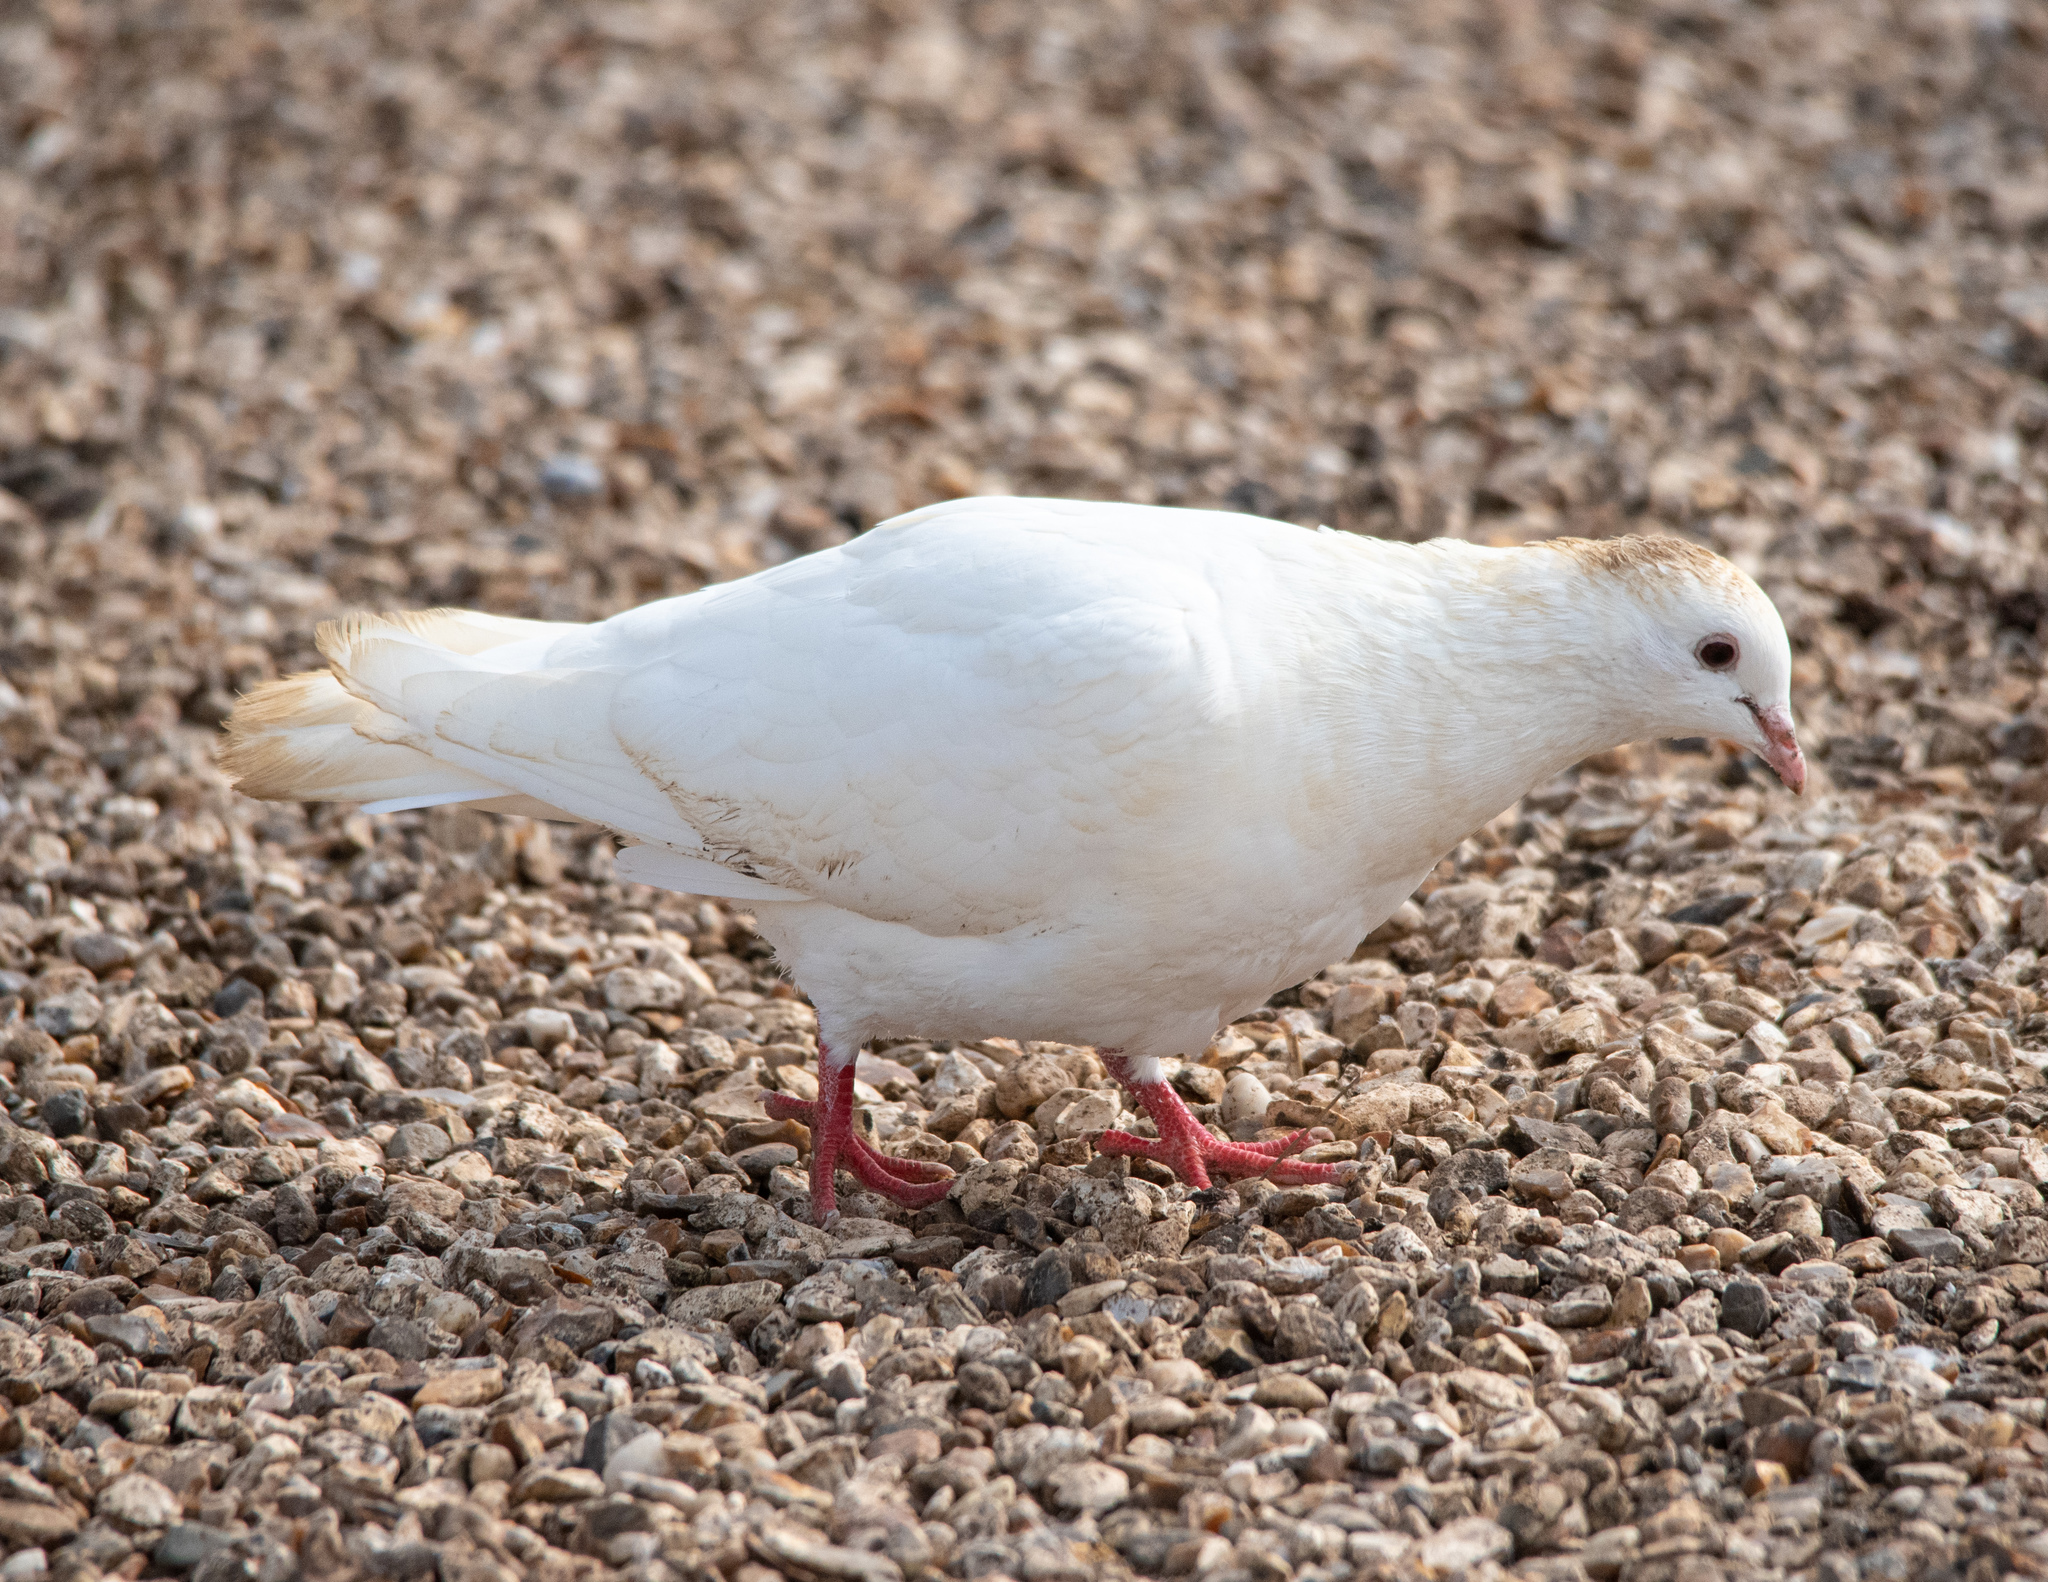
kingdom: Animalia
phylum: Chordata
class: Aves
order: Columbiformes
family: Columbidae
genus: Columba
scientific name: Columba livia
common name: Rock pigeon
